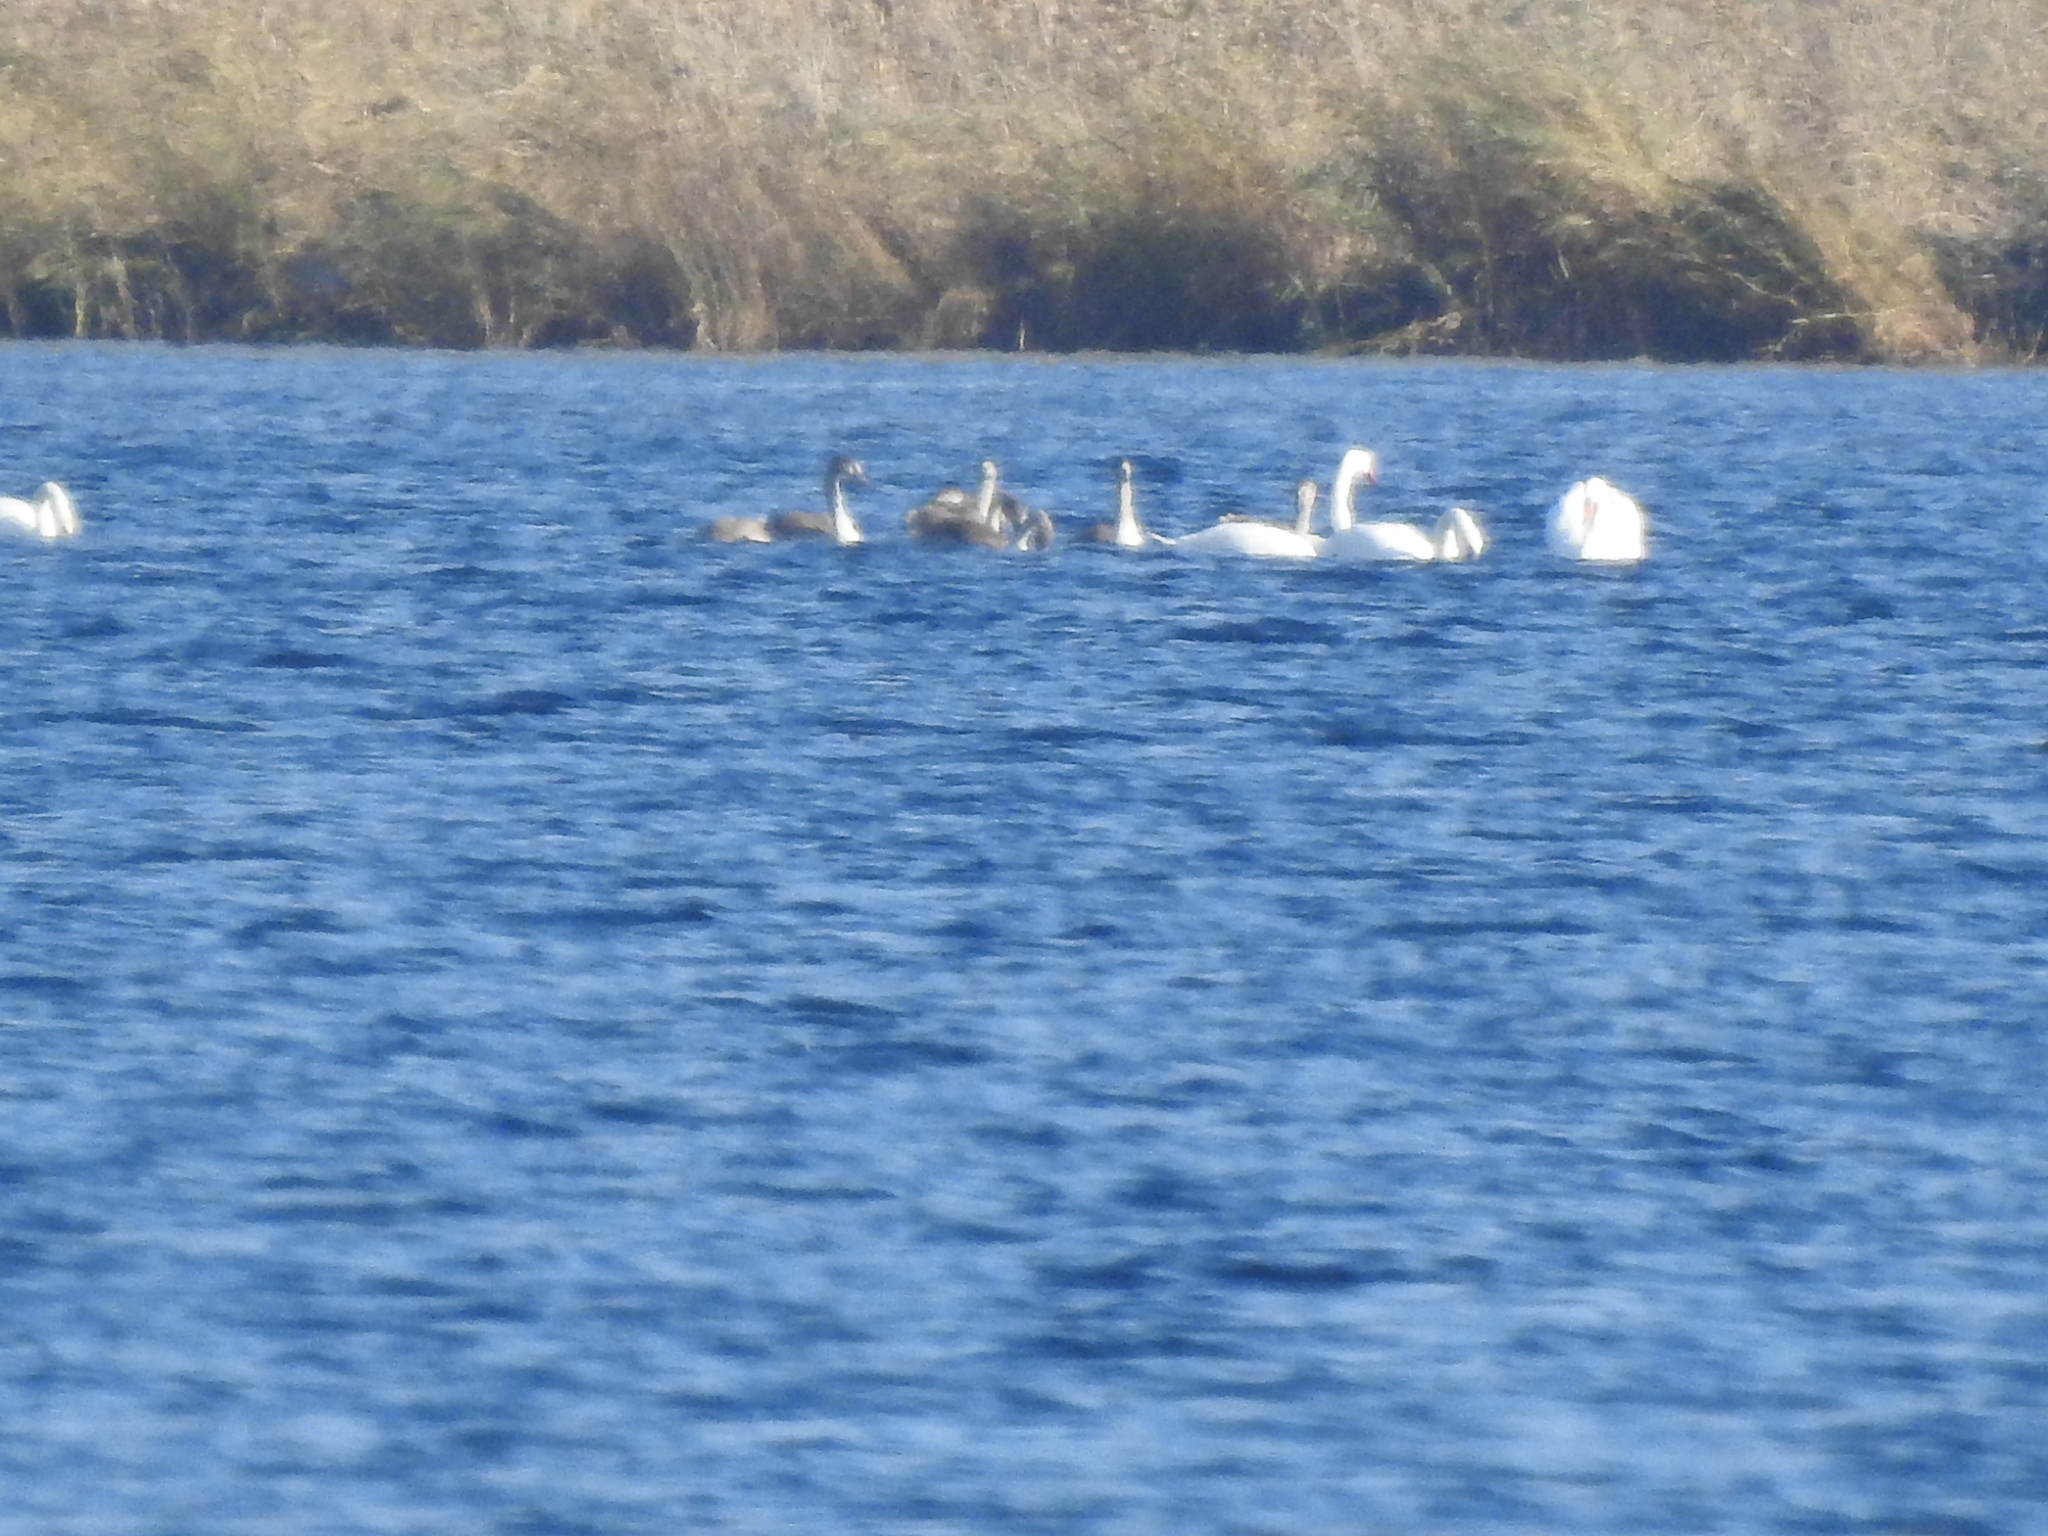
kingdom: Animalia
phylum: Chordata
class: Aves
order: Anseriformes
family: Anatidae
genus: Cygnus
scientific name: Cygnus olor
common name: Mute swan
